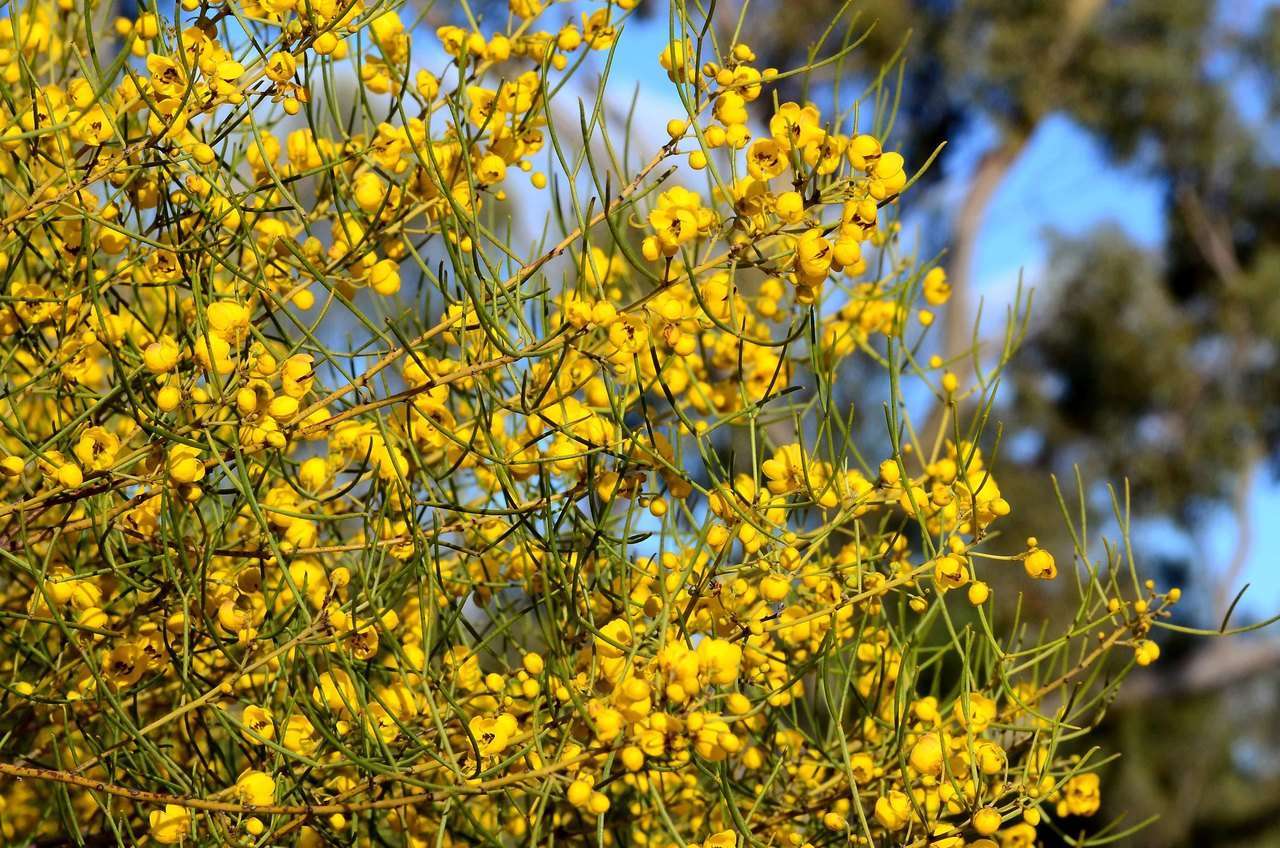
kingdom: Plantae
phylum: Tracheophyta
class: Magnoliopsida
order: Fabales
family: Fabaceae
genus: Senna
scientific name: Senna artemisioides
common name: Burnt-leaved acacia
